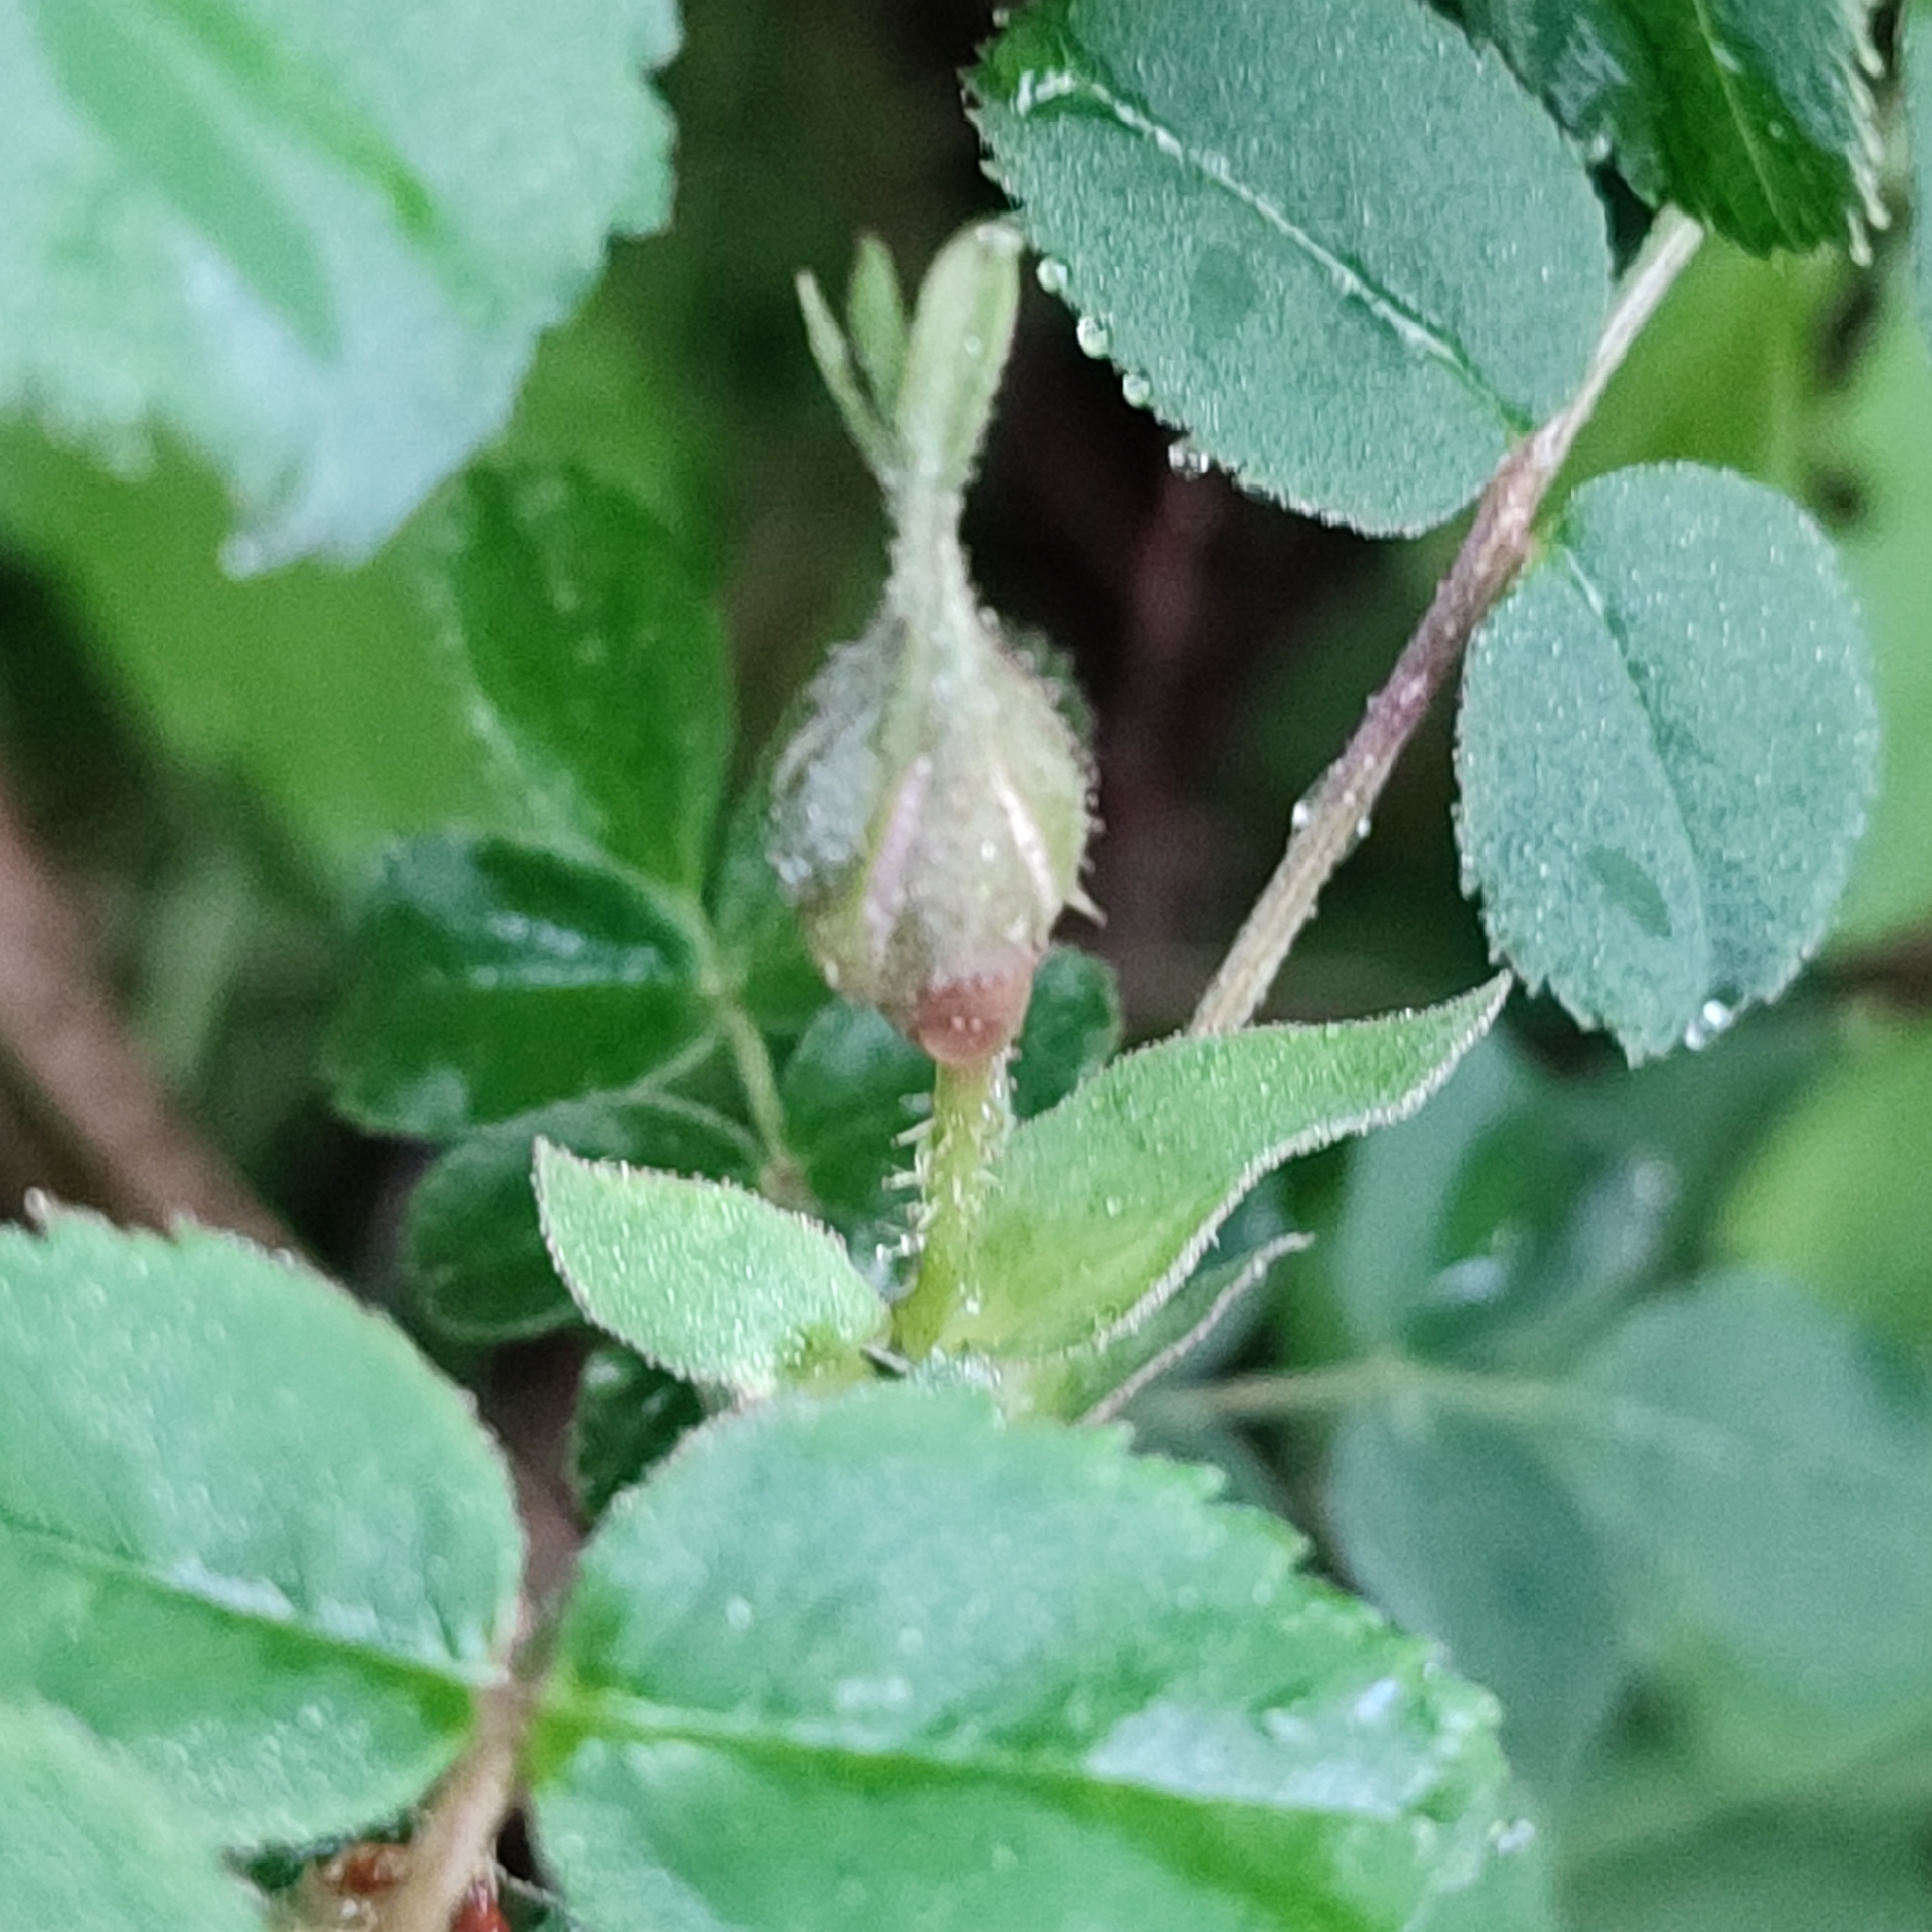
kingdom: Plantae
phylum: Tracheophyta
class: Magnoliopsida
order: Rosales
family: Rosaceae
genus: Rosa
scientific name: Rosa pendulina
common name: Alpine rose
